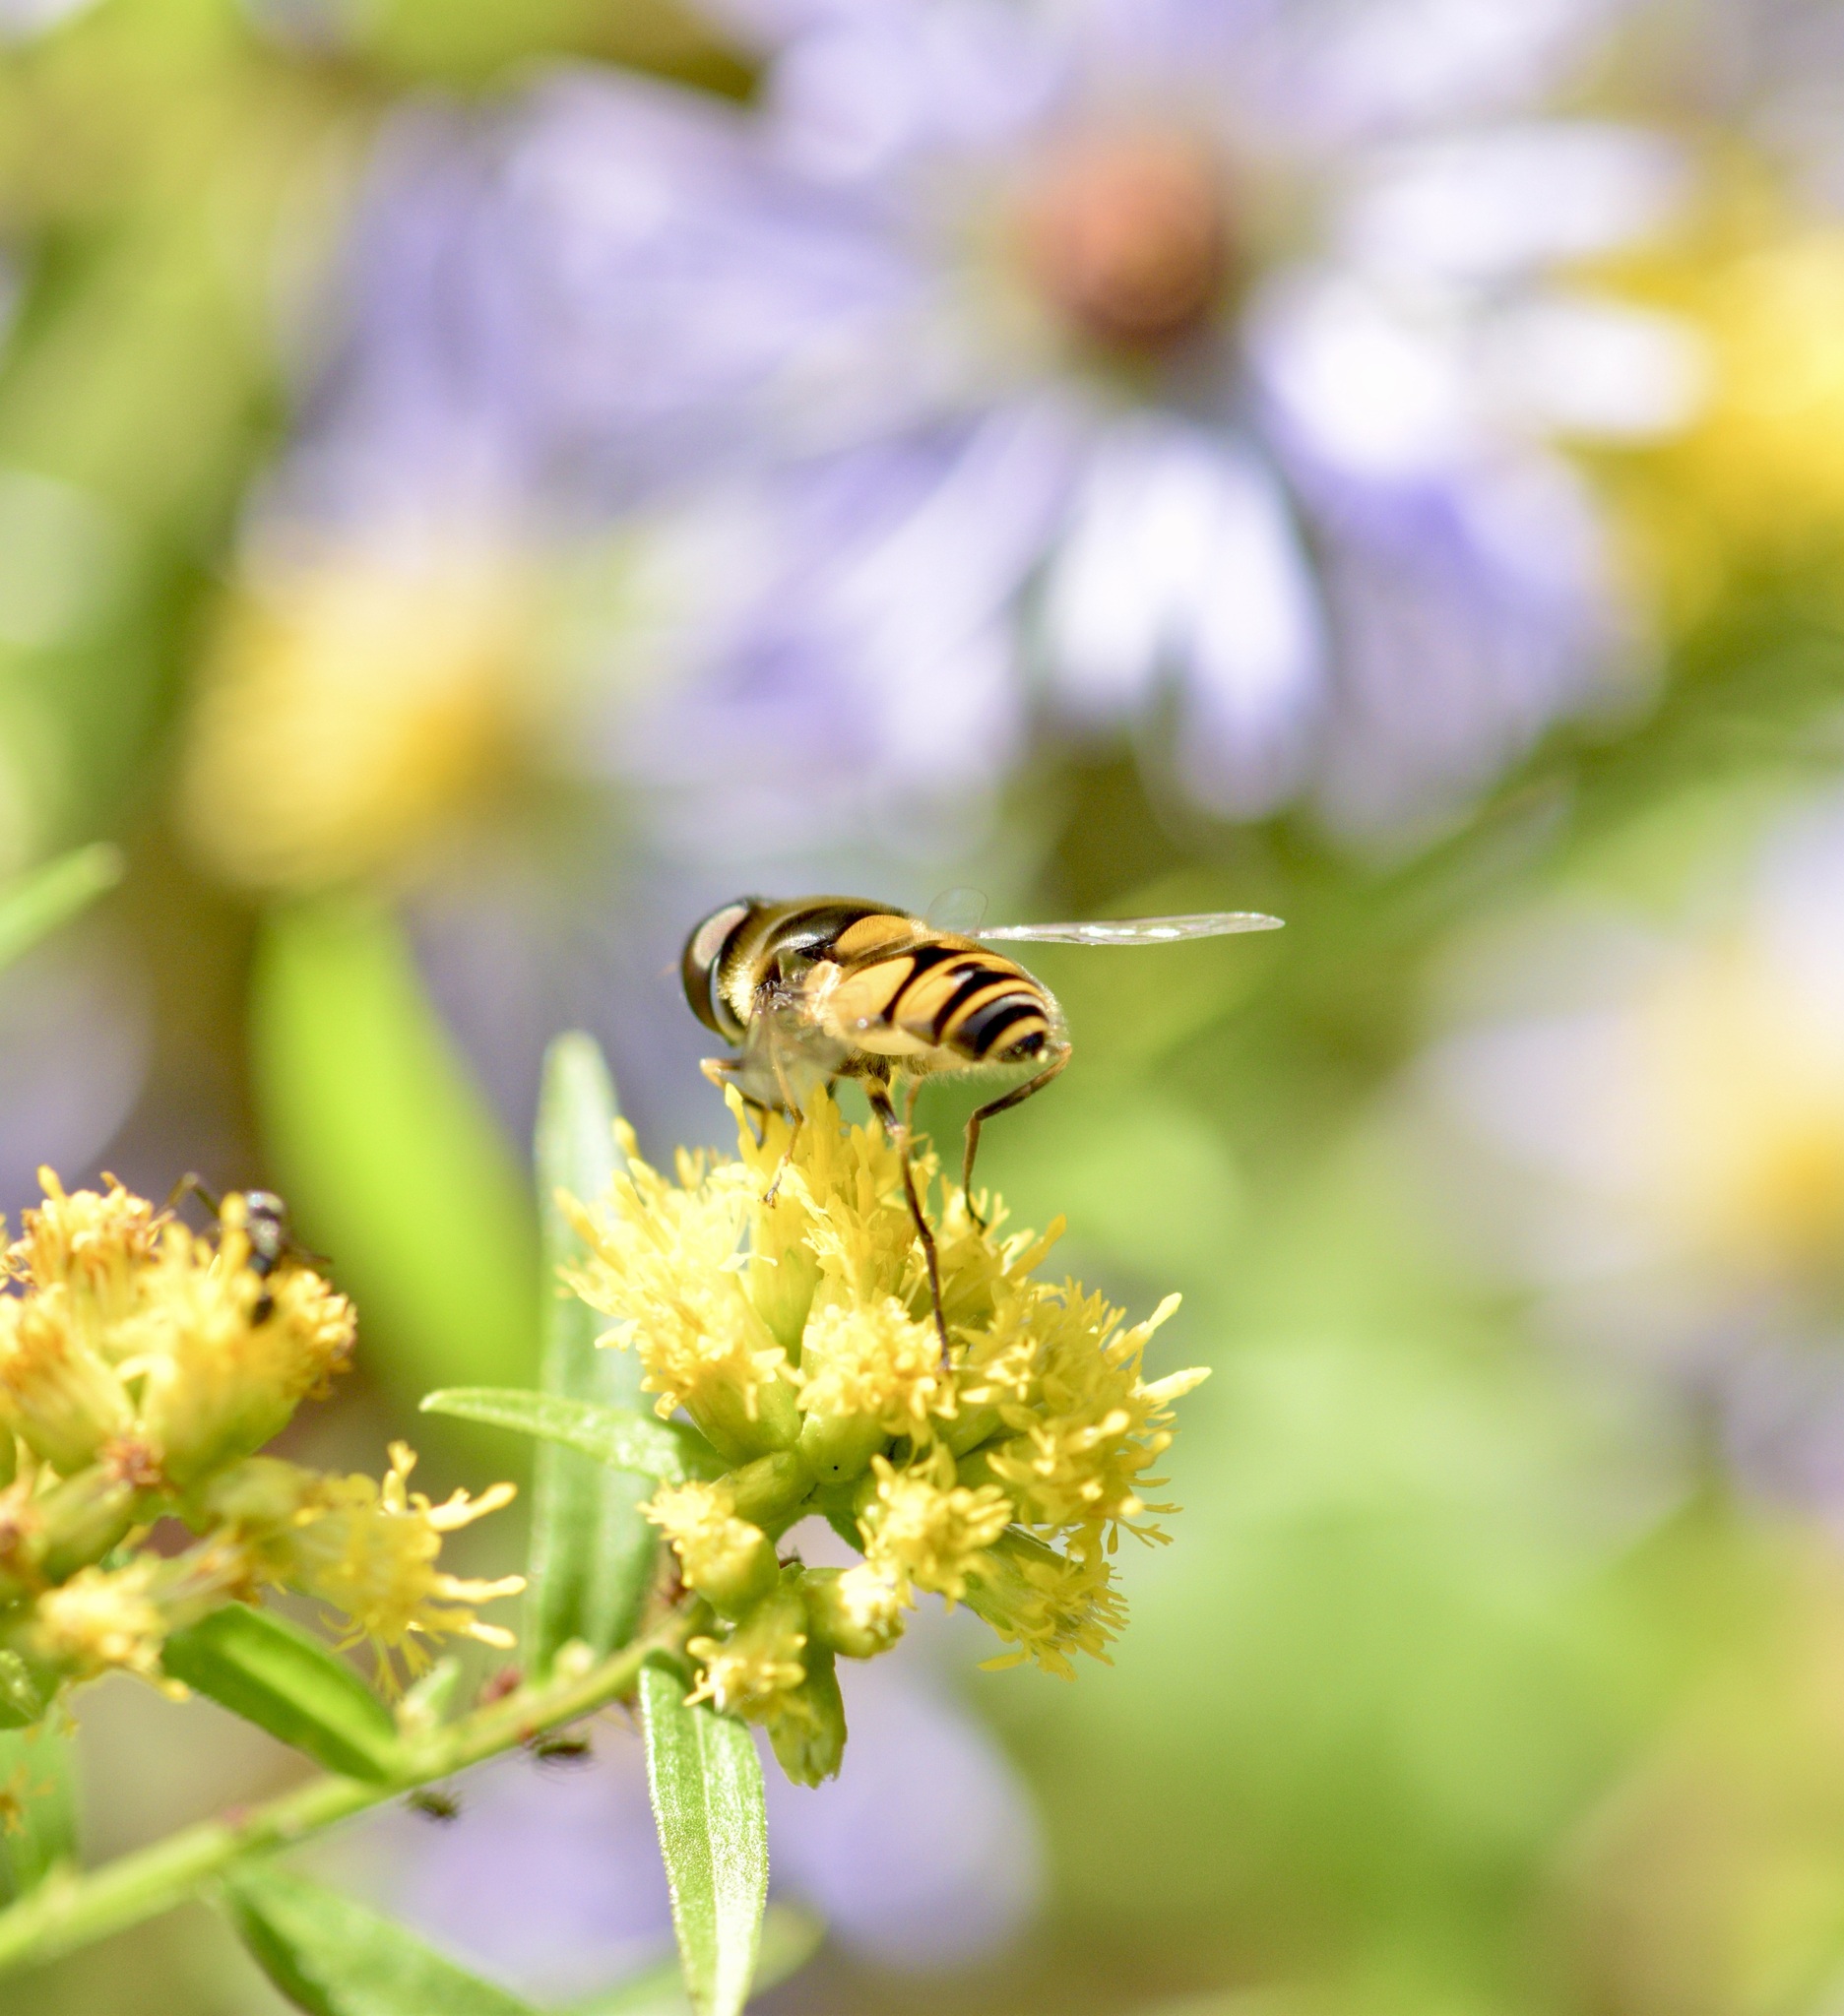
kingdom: Animalia
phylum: Arthropoda
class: Insecta
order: Diptera
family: Syrphidae
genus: Eristalis
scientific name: Eristalis transversa
